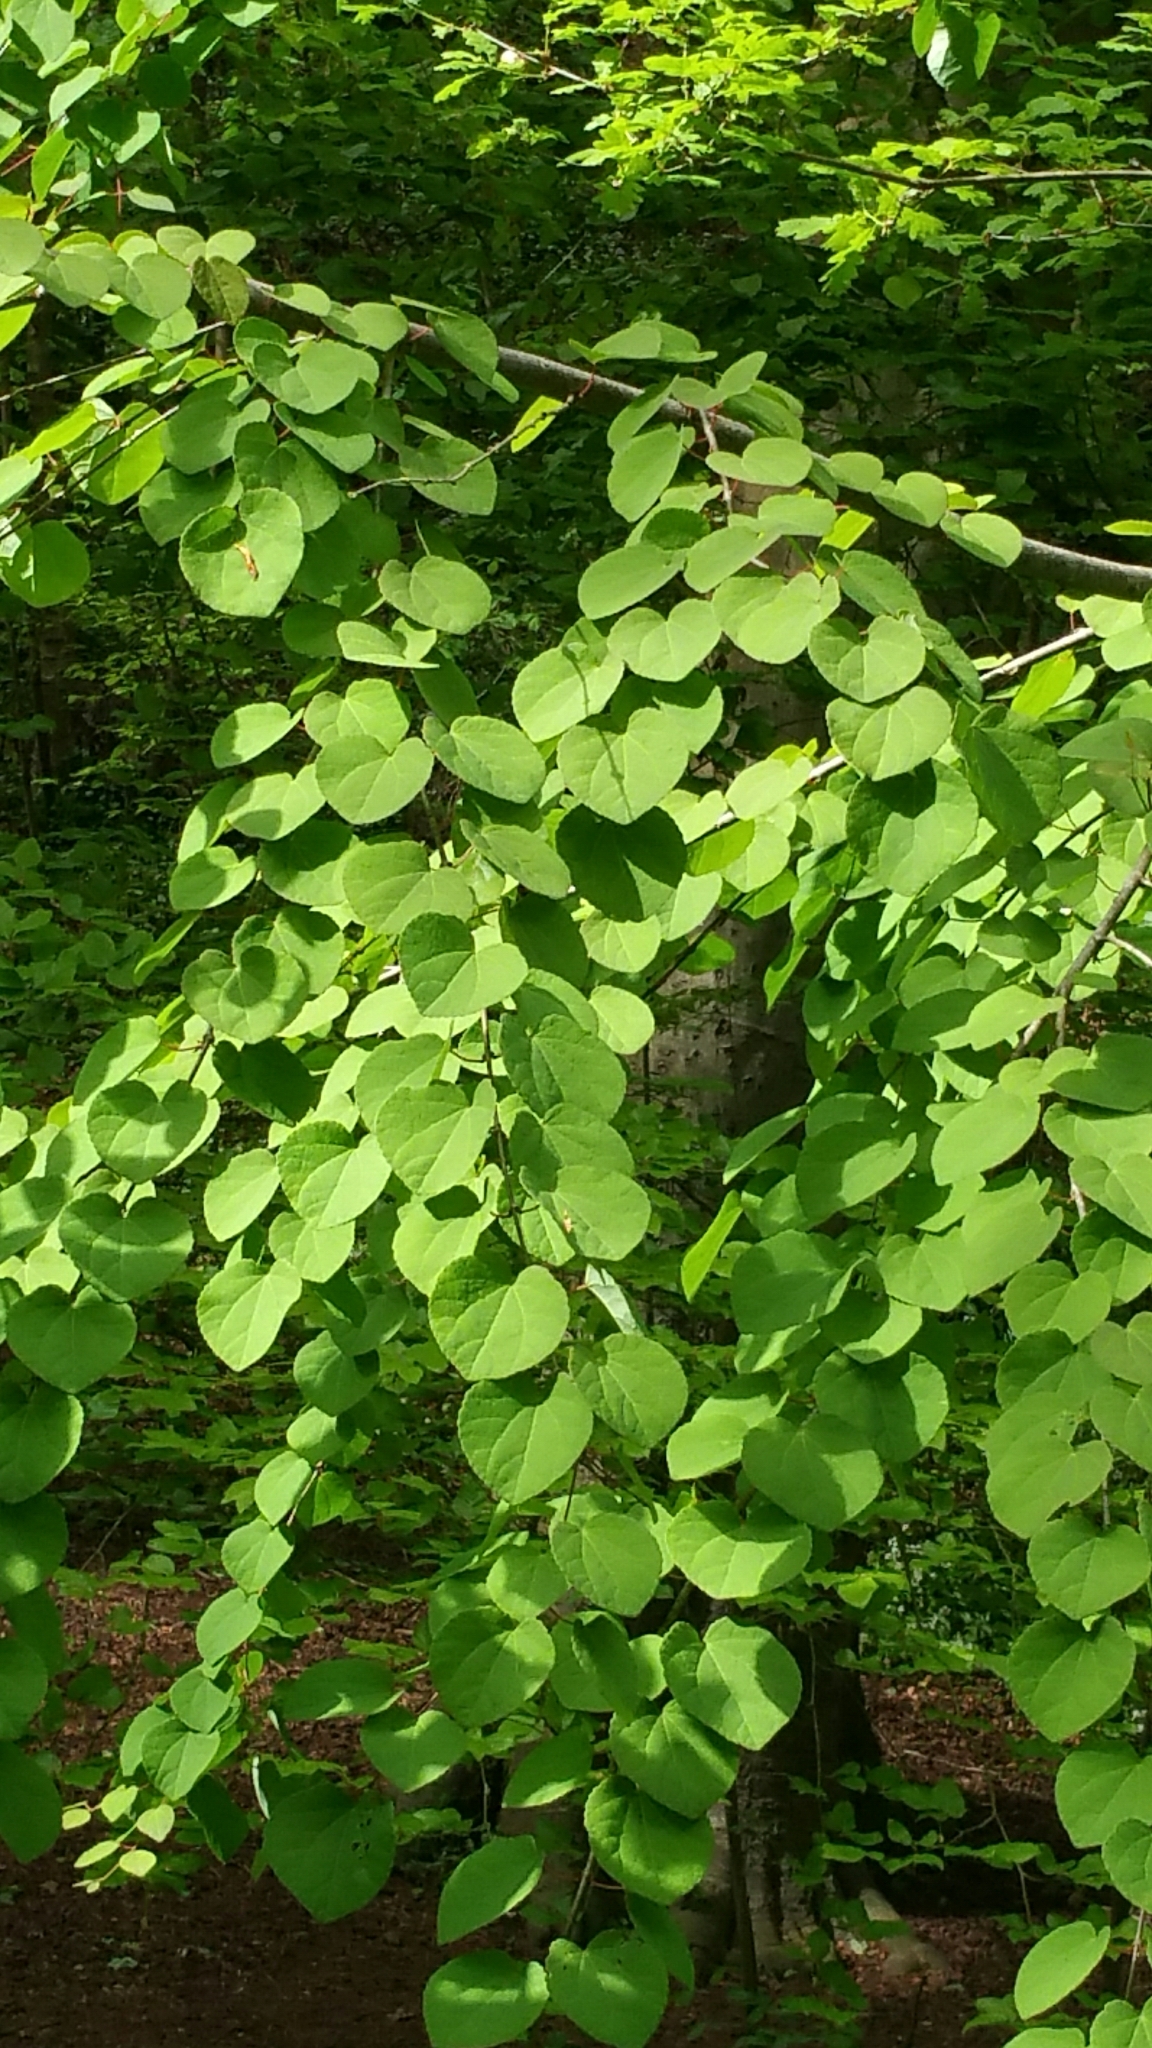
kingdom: Plantae
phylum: Tracheophyta
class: Magnoliopsida
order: Dipsacales
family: Caprifoliaceae
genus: Symphoricarpos
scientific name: Symphoricarpos albus
